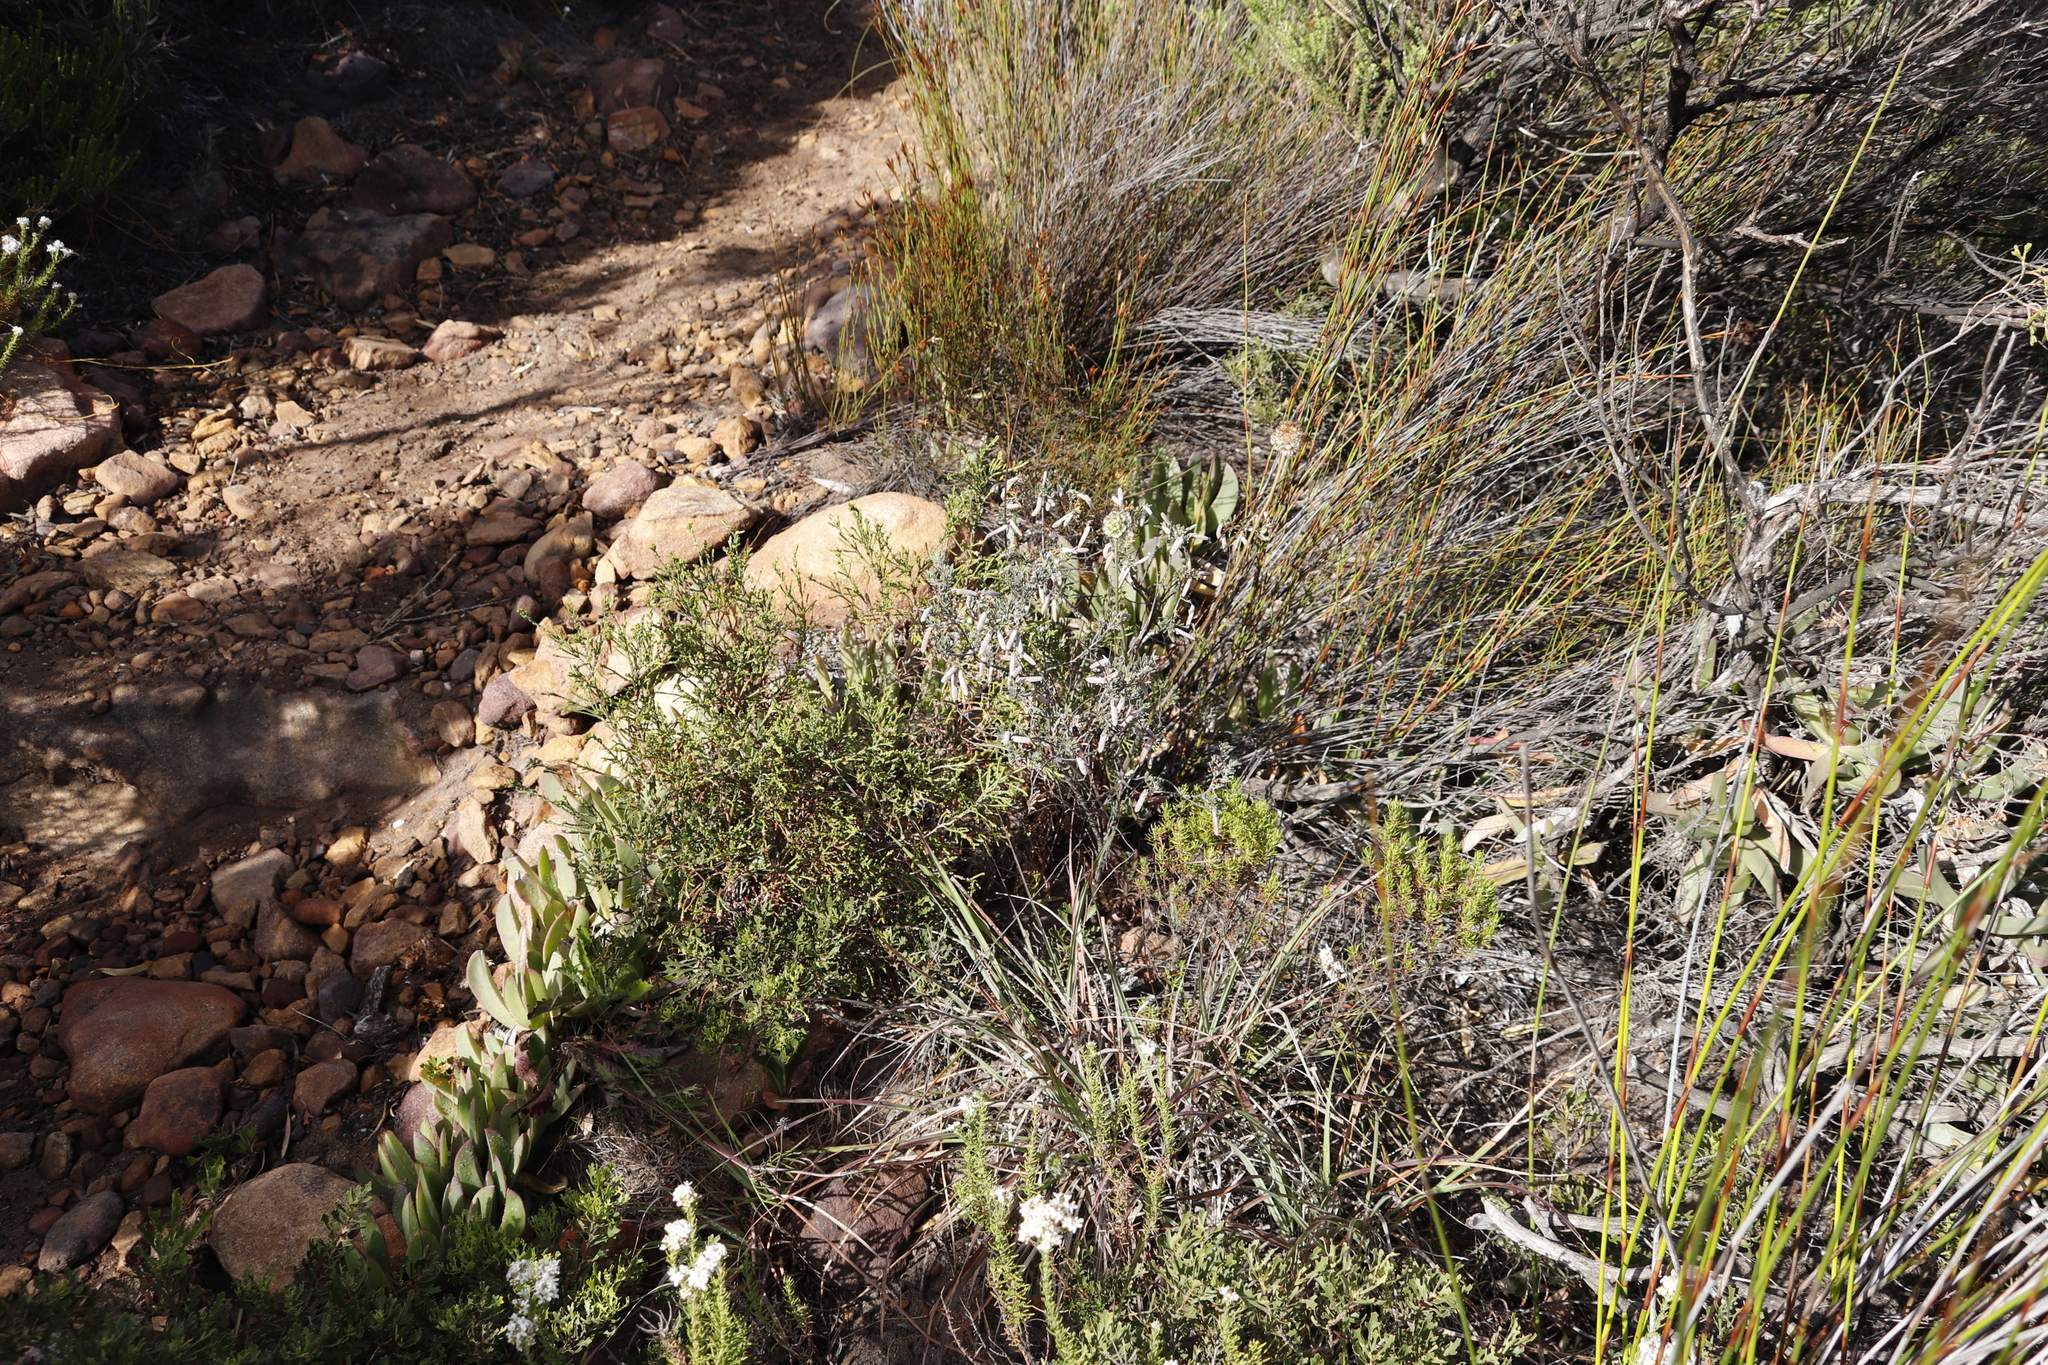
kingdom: Plantae
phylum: Tracheophyta
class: Magnoliopsida
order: Fabales
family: Fabaceae
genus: Indigofera
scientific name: Indigofera brachystachya
